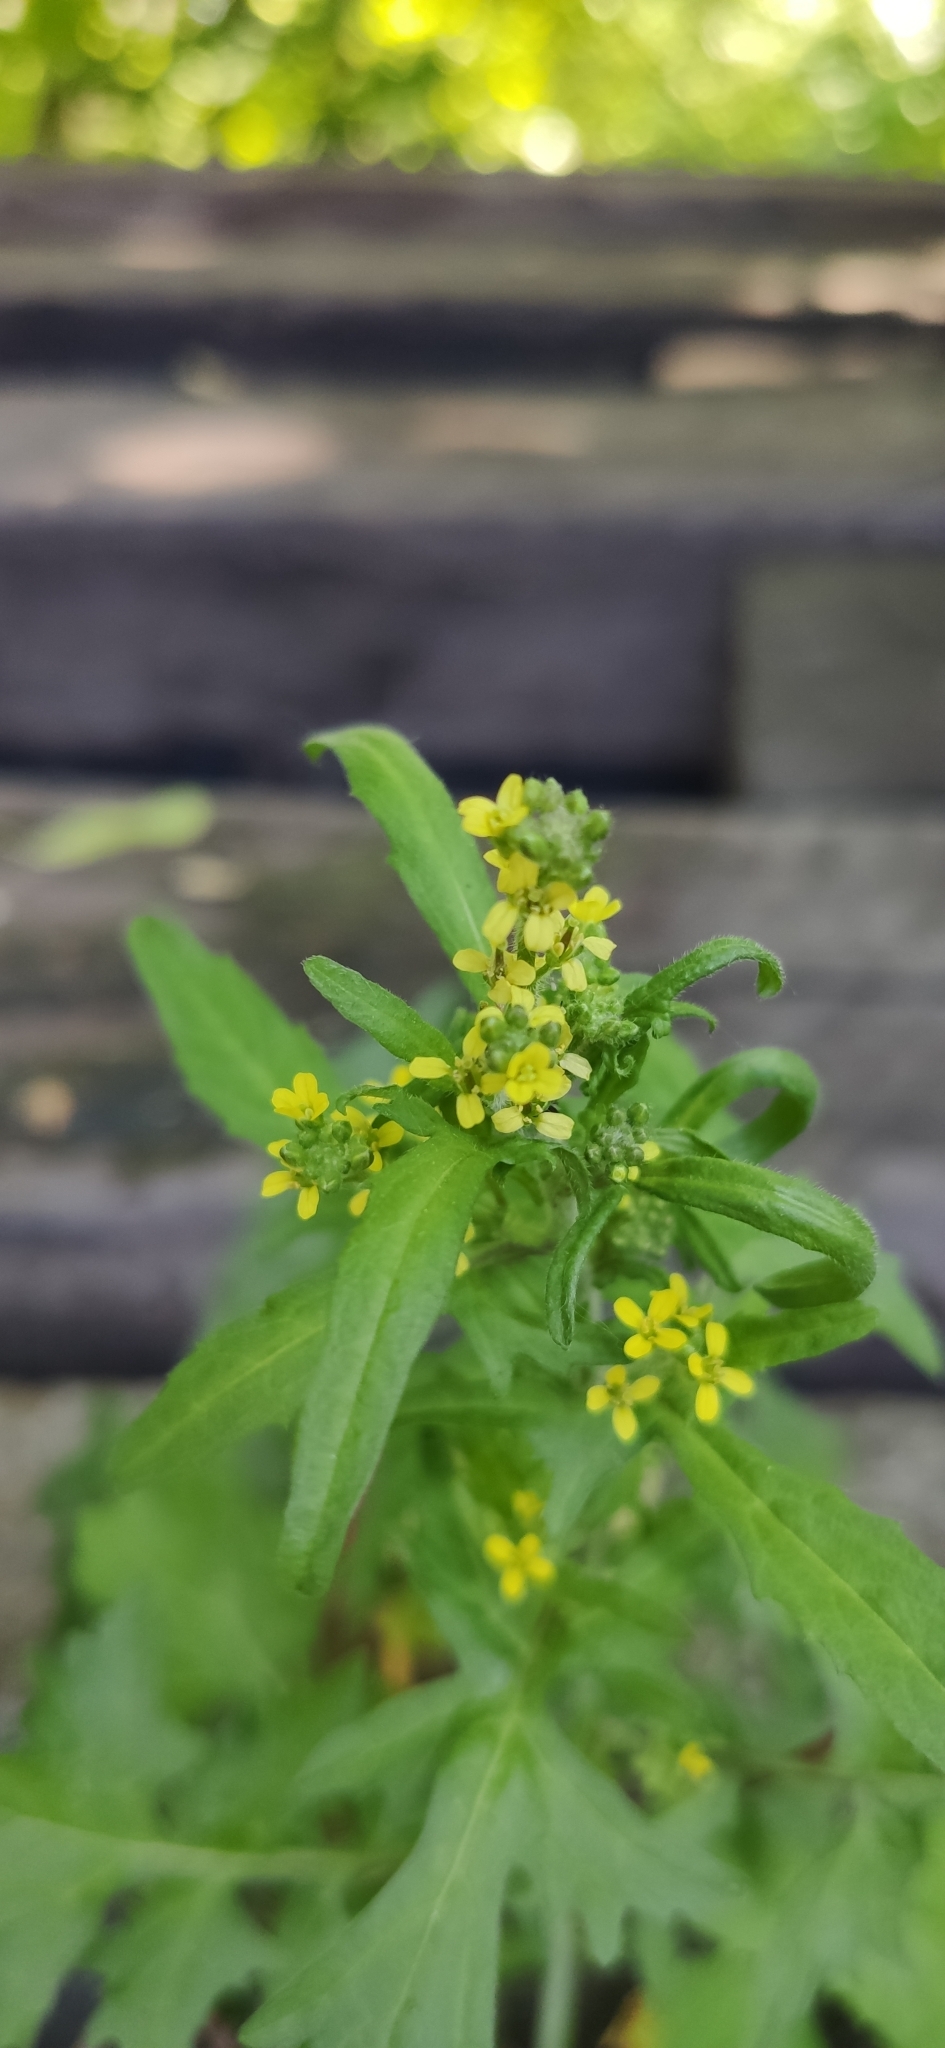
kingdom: Plantae
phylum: Tracheophyta
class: Magnoliopsida
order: Brassicales
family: Brassicaceae
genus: Sisymbrium
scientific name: Sisymbrium officinale
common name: Hedge mustard
